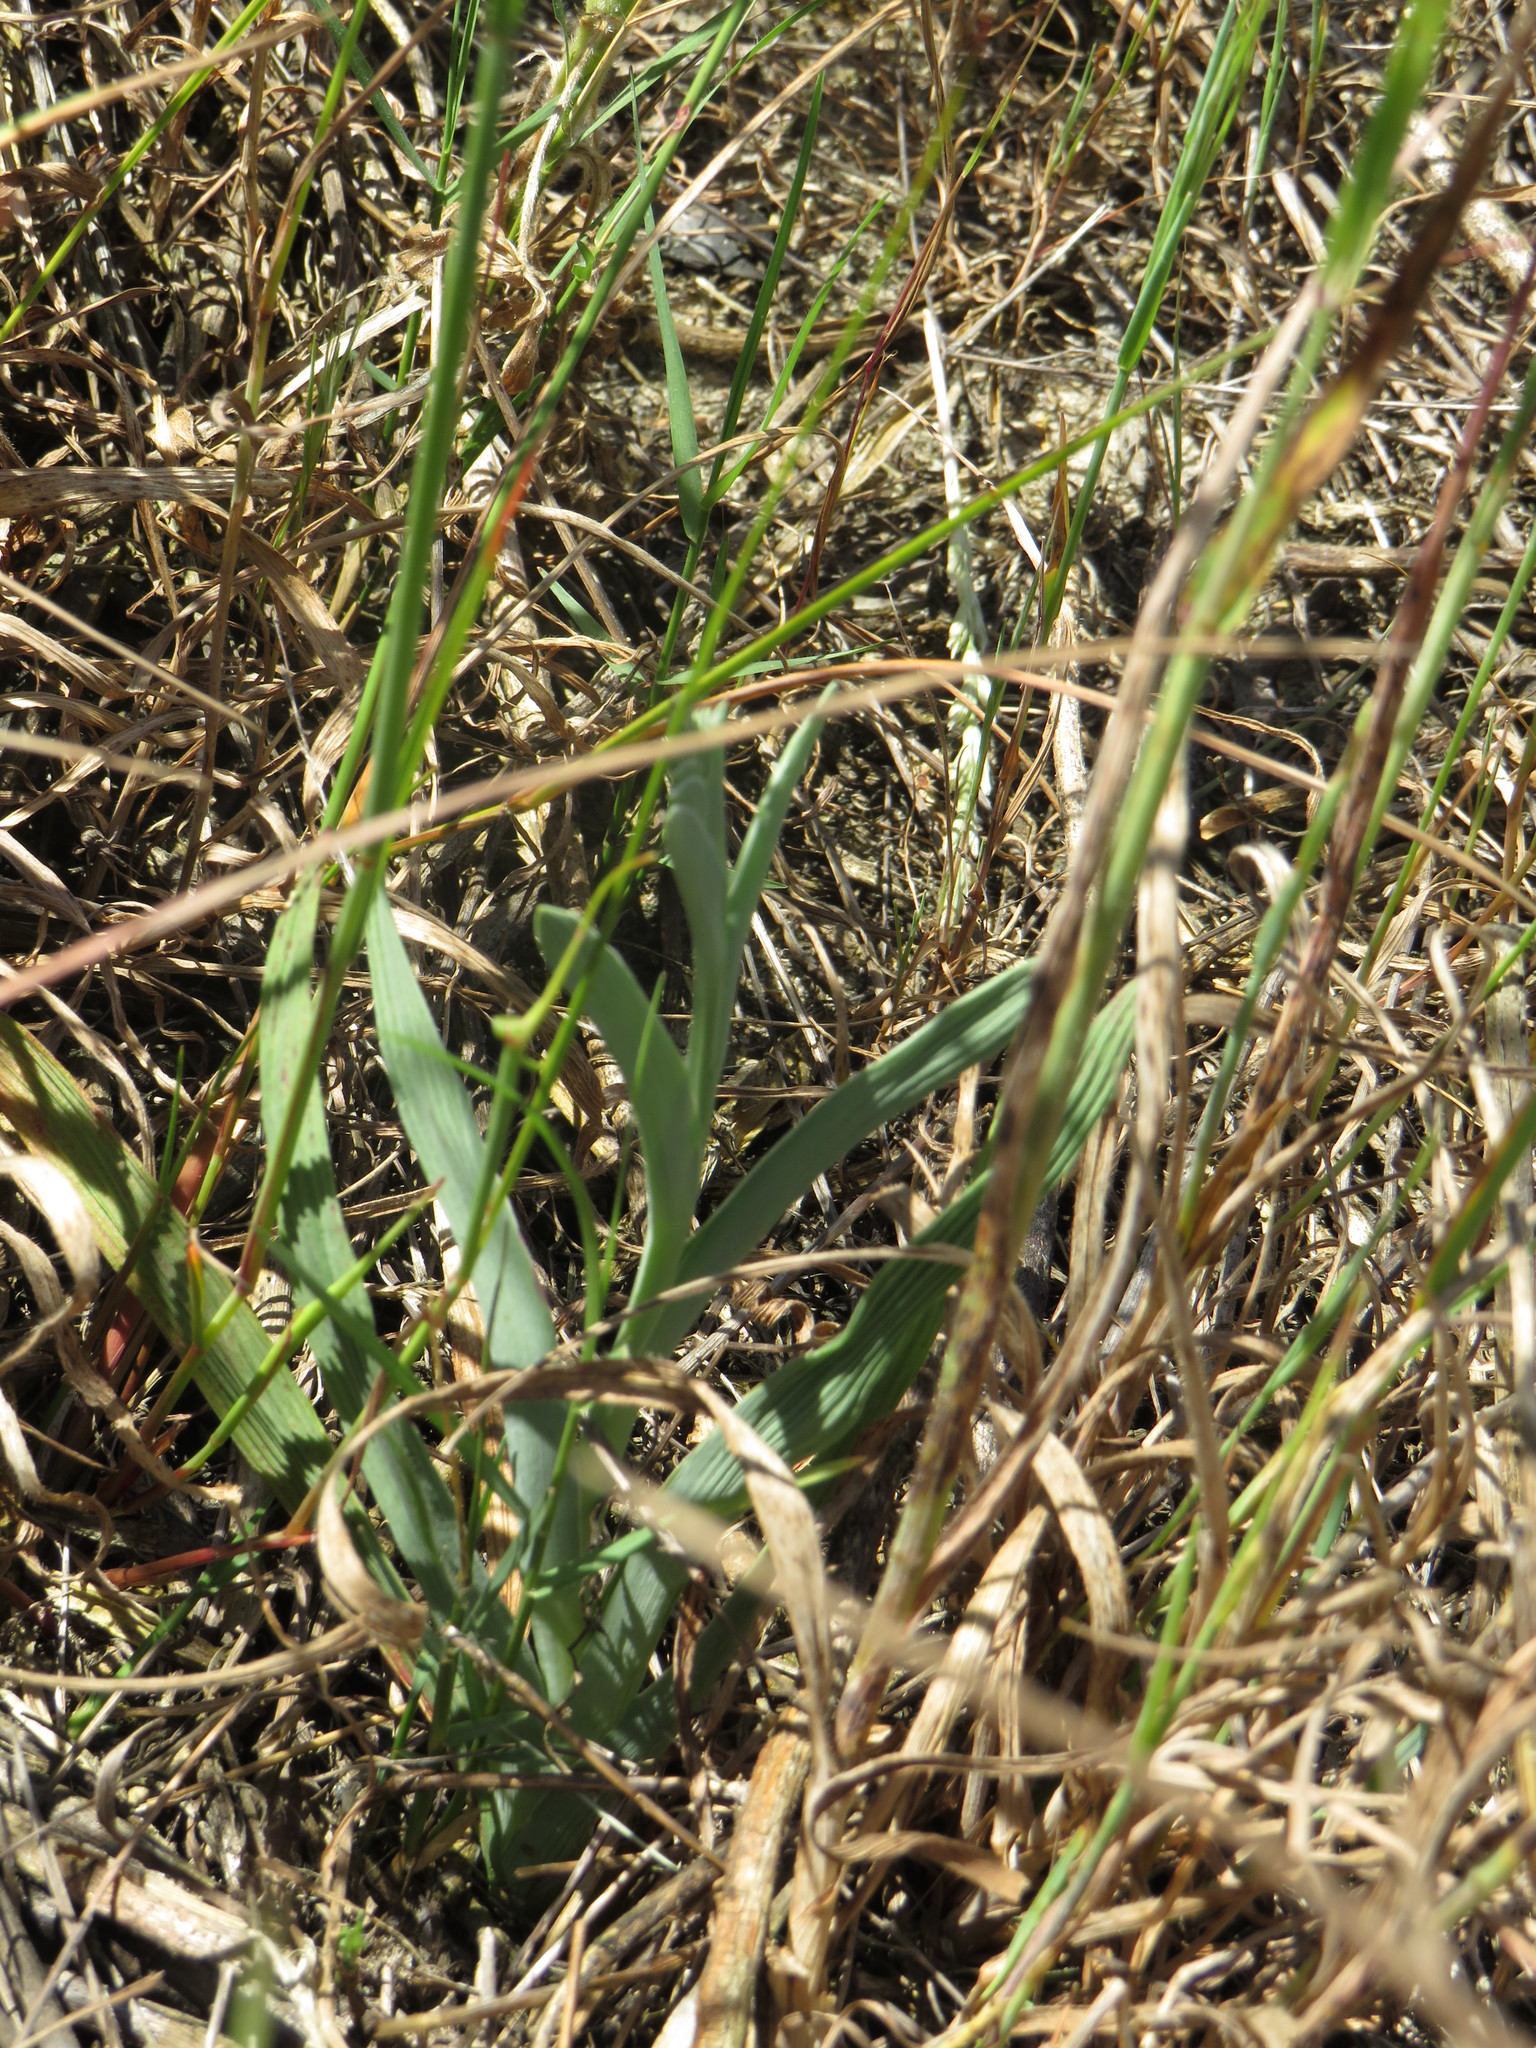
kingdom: Plantae
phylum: Tracheophyta
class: Liliopsida
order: Asparagales
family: Iridaceae
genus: Lapeirousia
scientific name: Lapeirousia anceps
